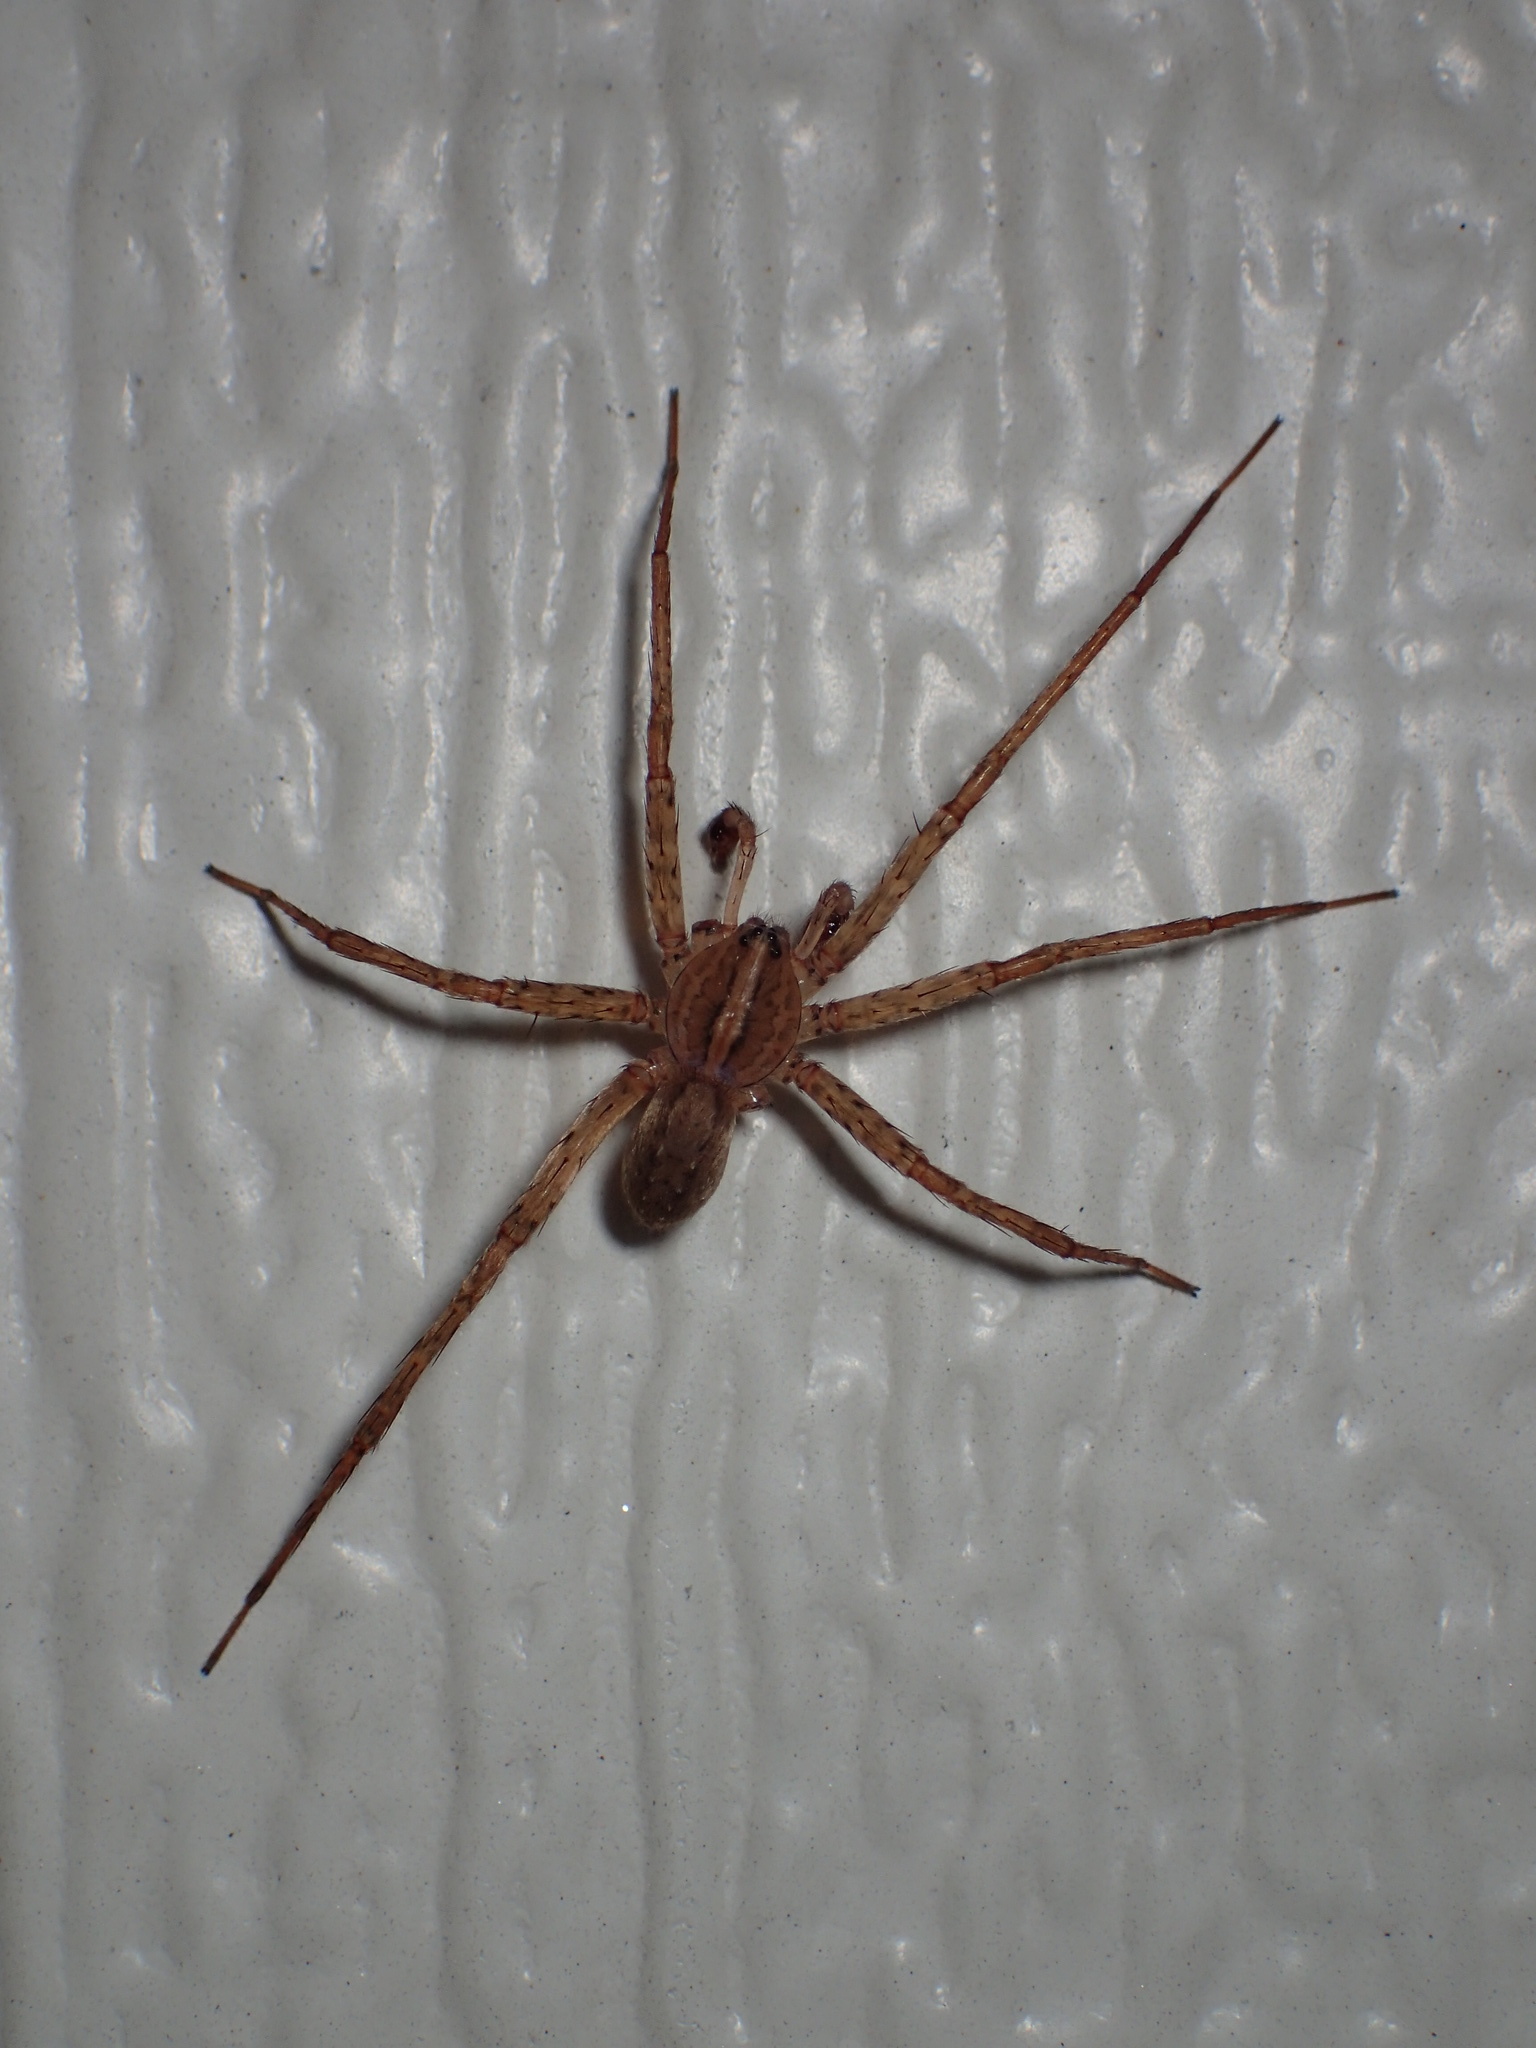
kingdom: Animalia
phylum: Arthropoda
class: Arachnida
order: Araneae
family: Ctenidae
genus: Anahita
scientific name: Anahita punctulata
